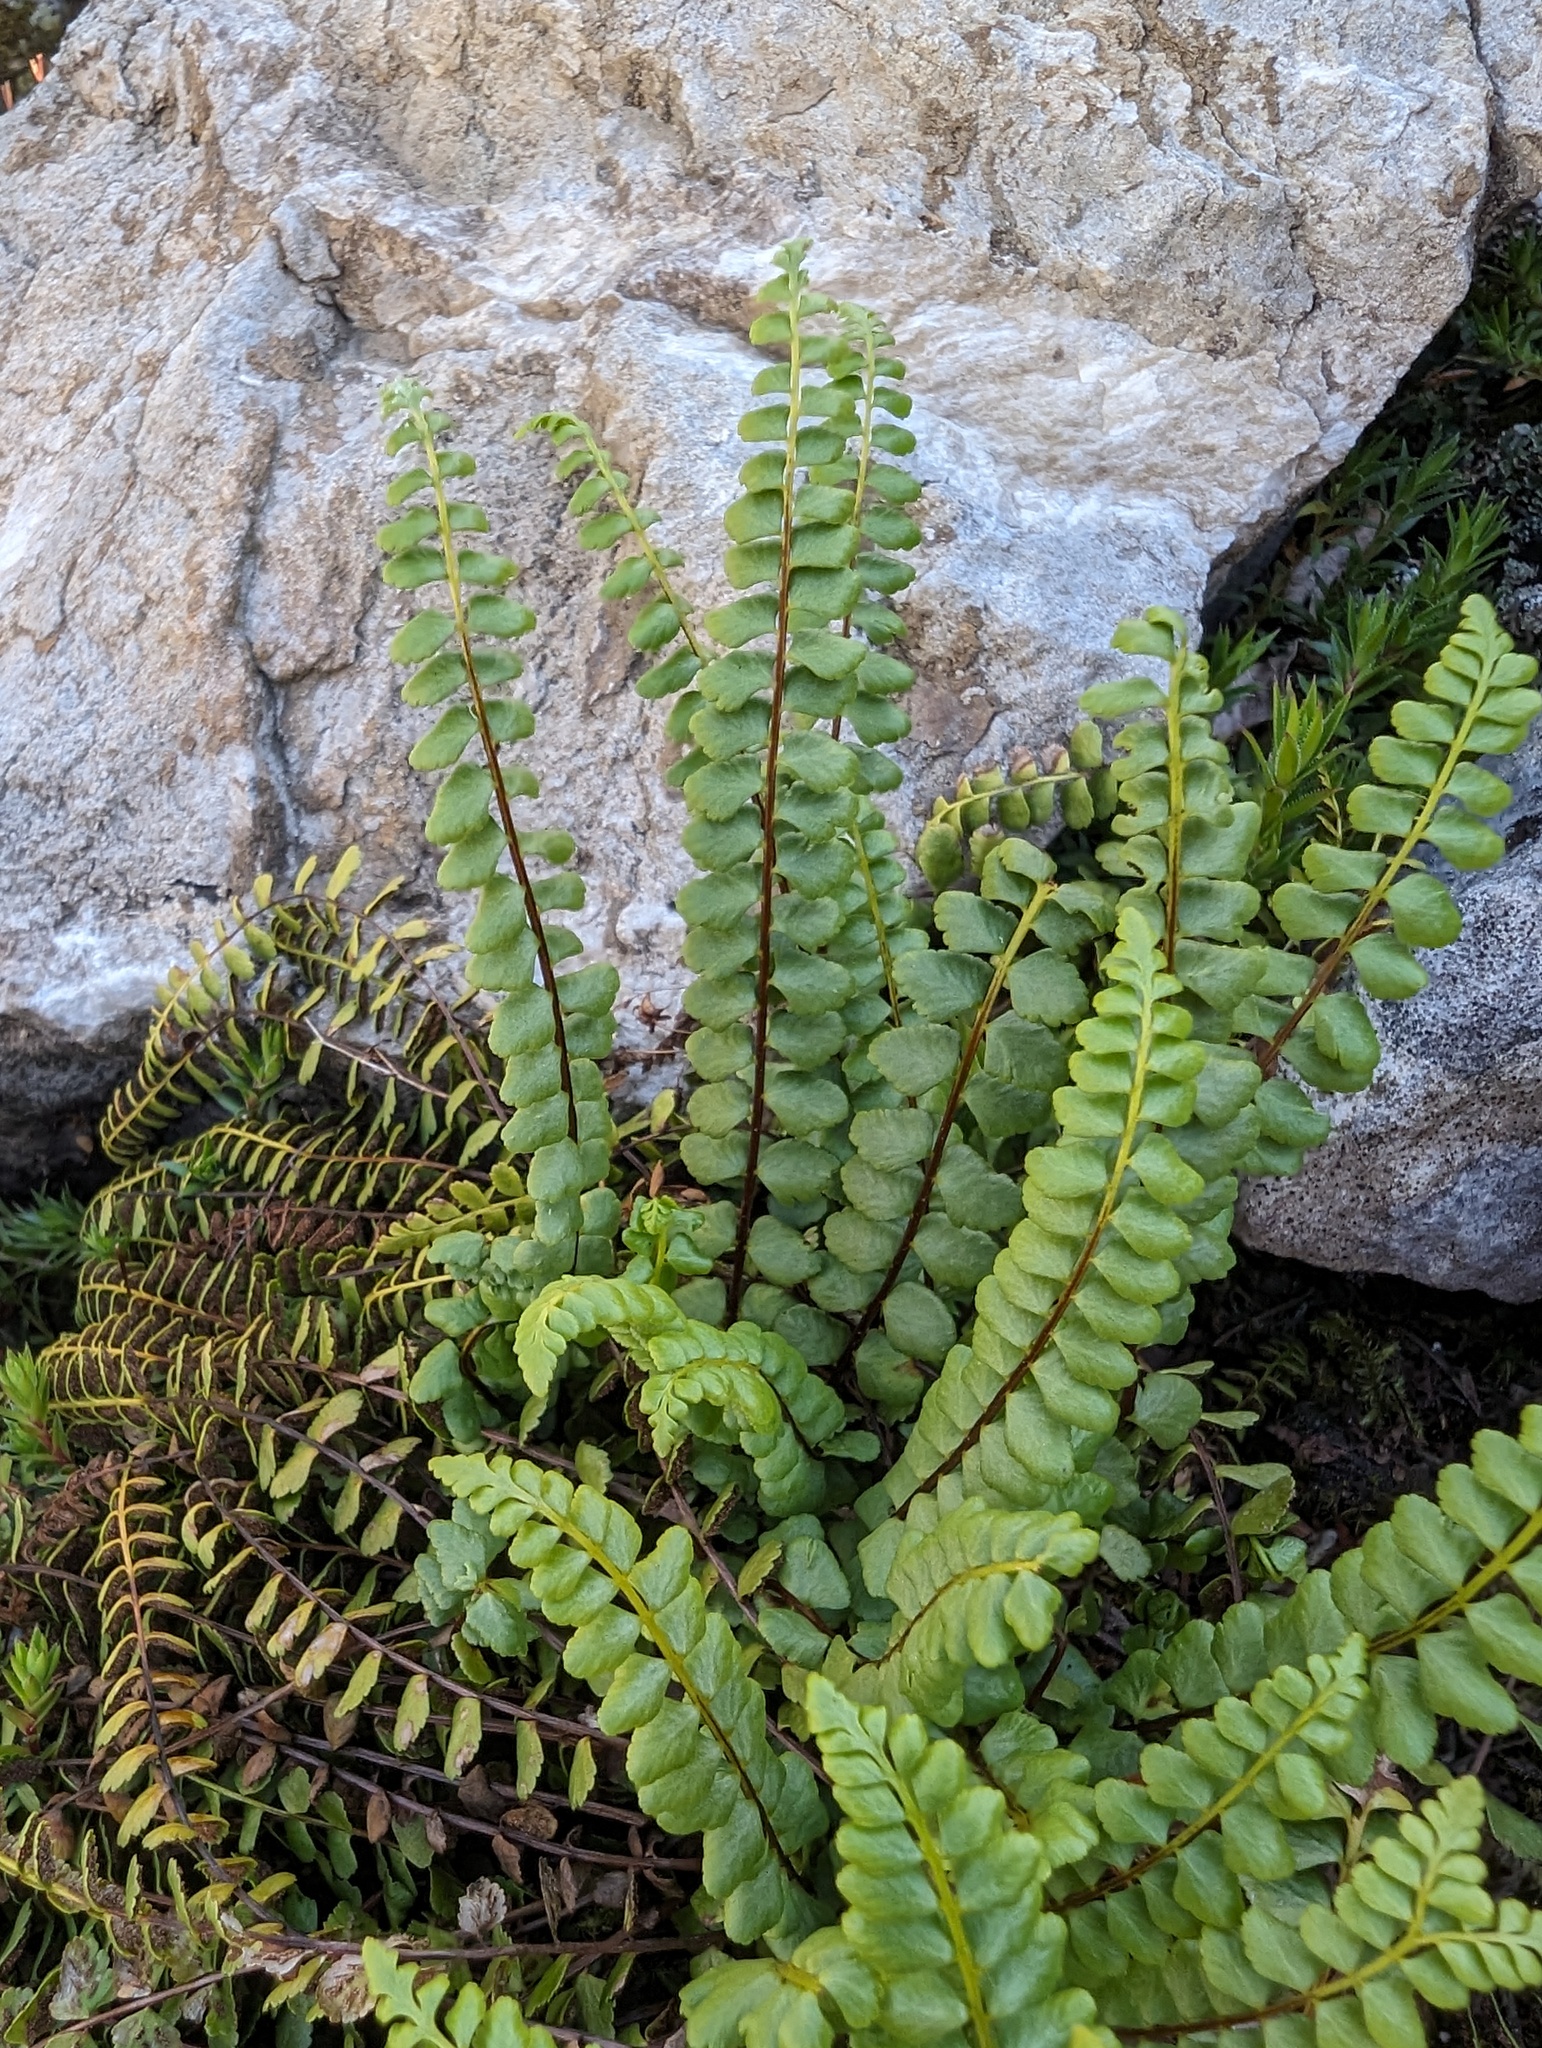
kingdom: Plantae
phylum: Tracheophyta
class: Polypodiopsida
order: Polypodiales
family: Aspleniaceae
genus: Asplenium
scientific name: Asplenium adulterinum
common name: Adulterated spleenwort
